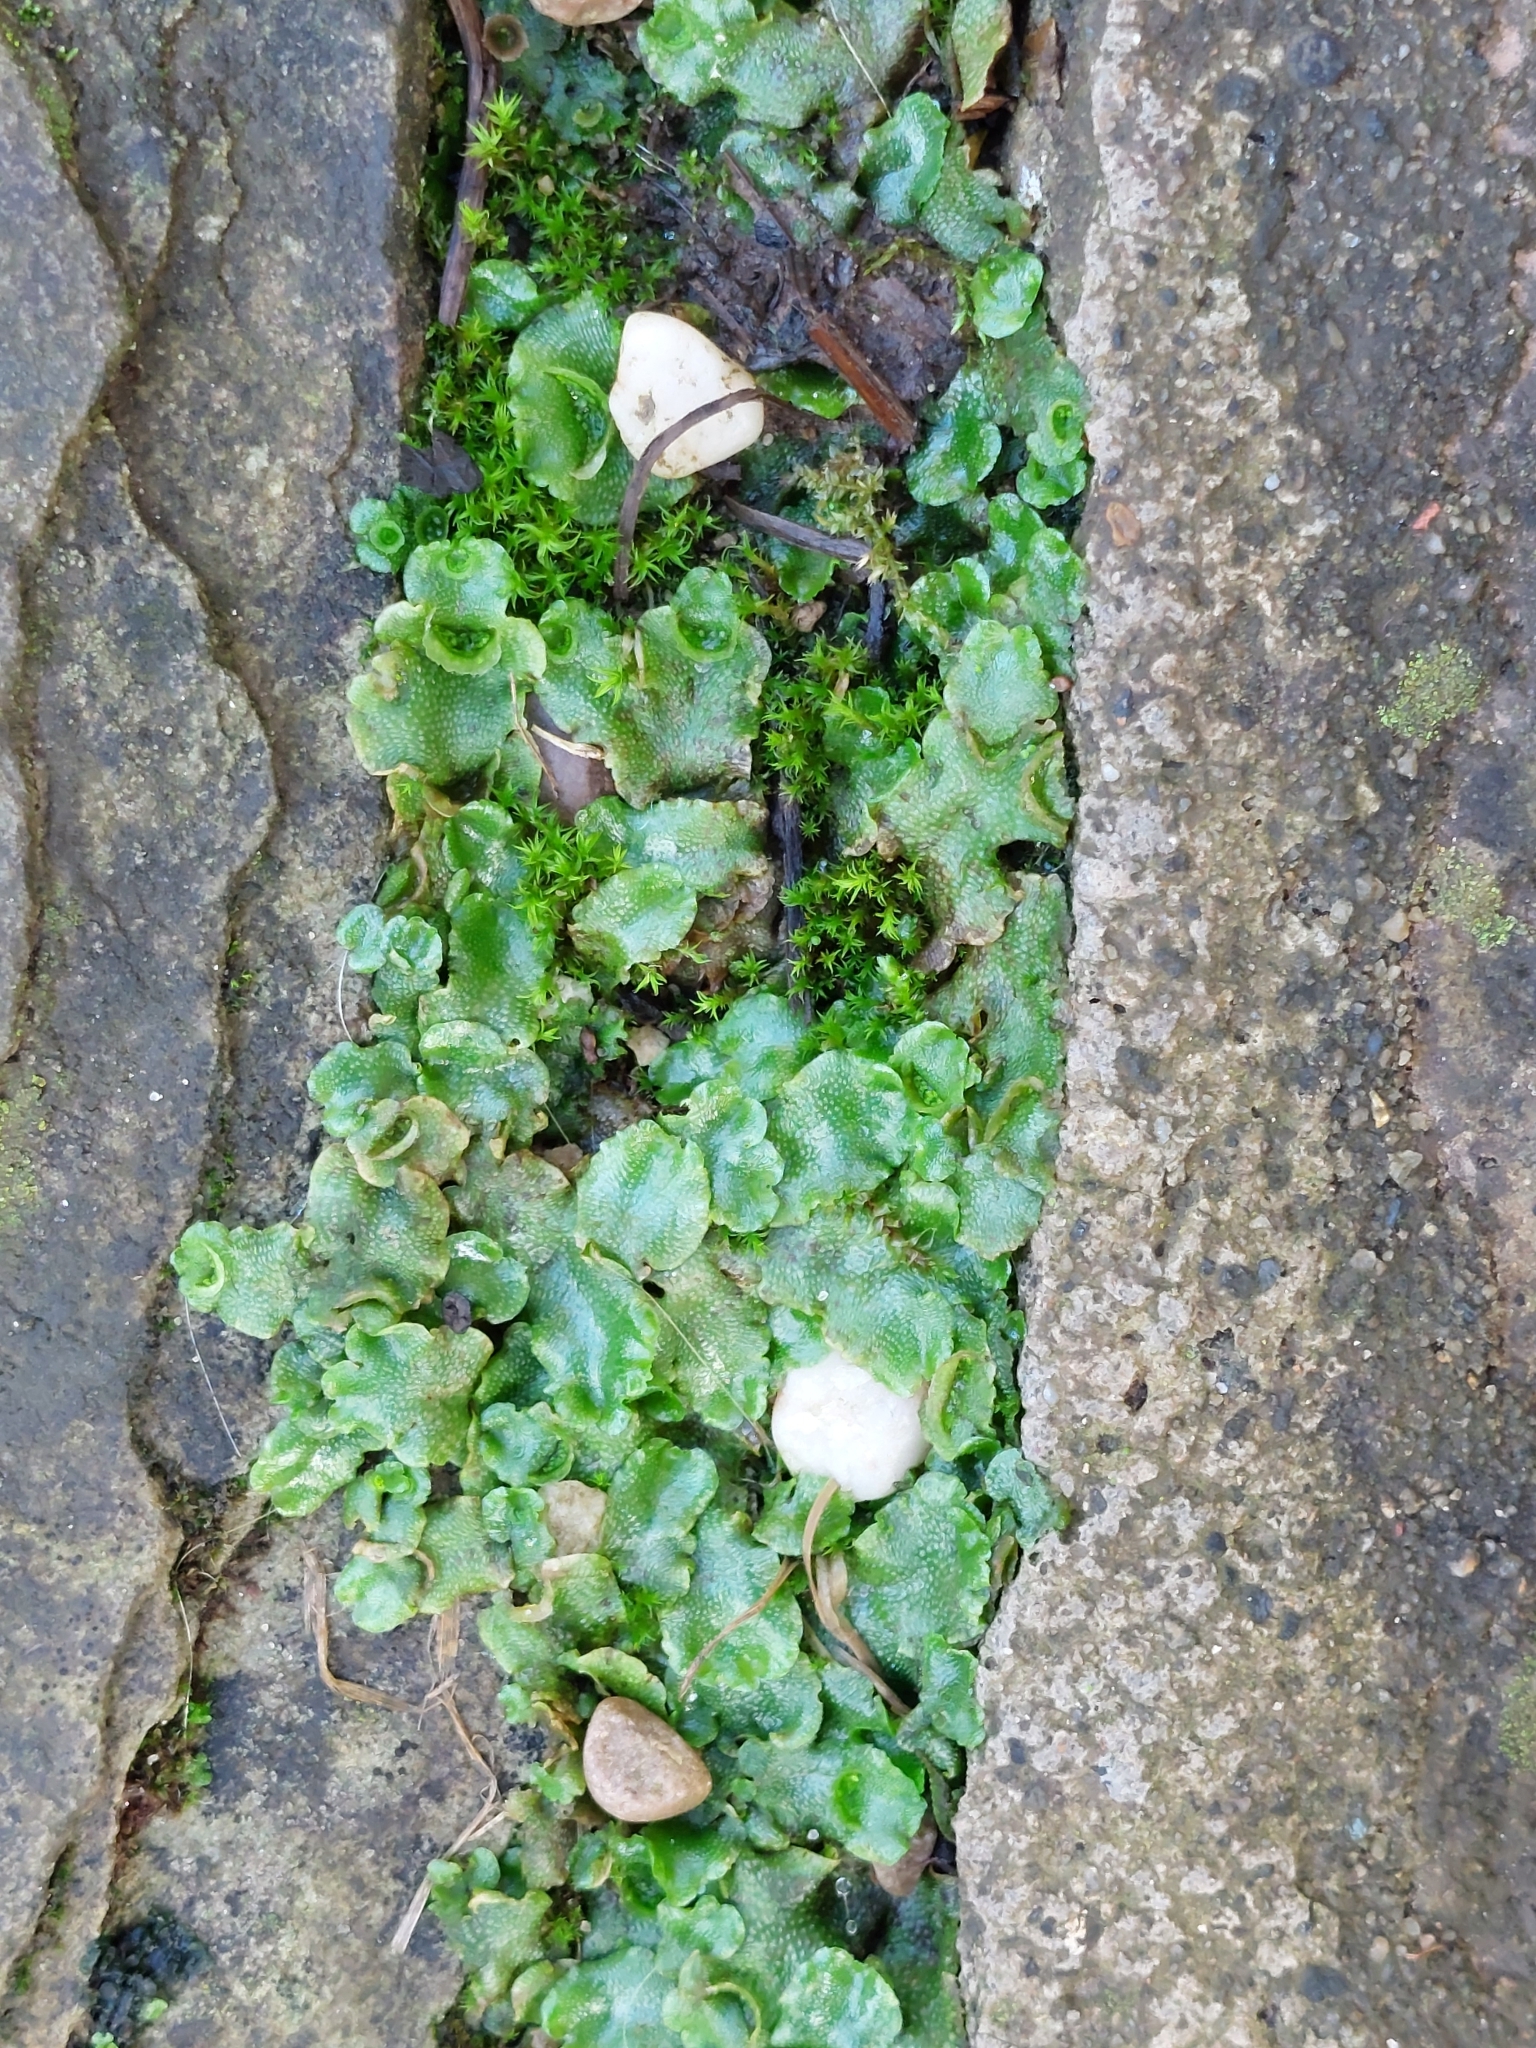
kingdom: Plantae
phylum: Marchantiophyta
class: Marchantiopsida
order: Lunulariales
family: Lunulariaceae
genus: Lunularia
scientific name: Lunularia cruciata
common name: Crescent-cup liverwort
